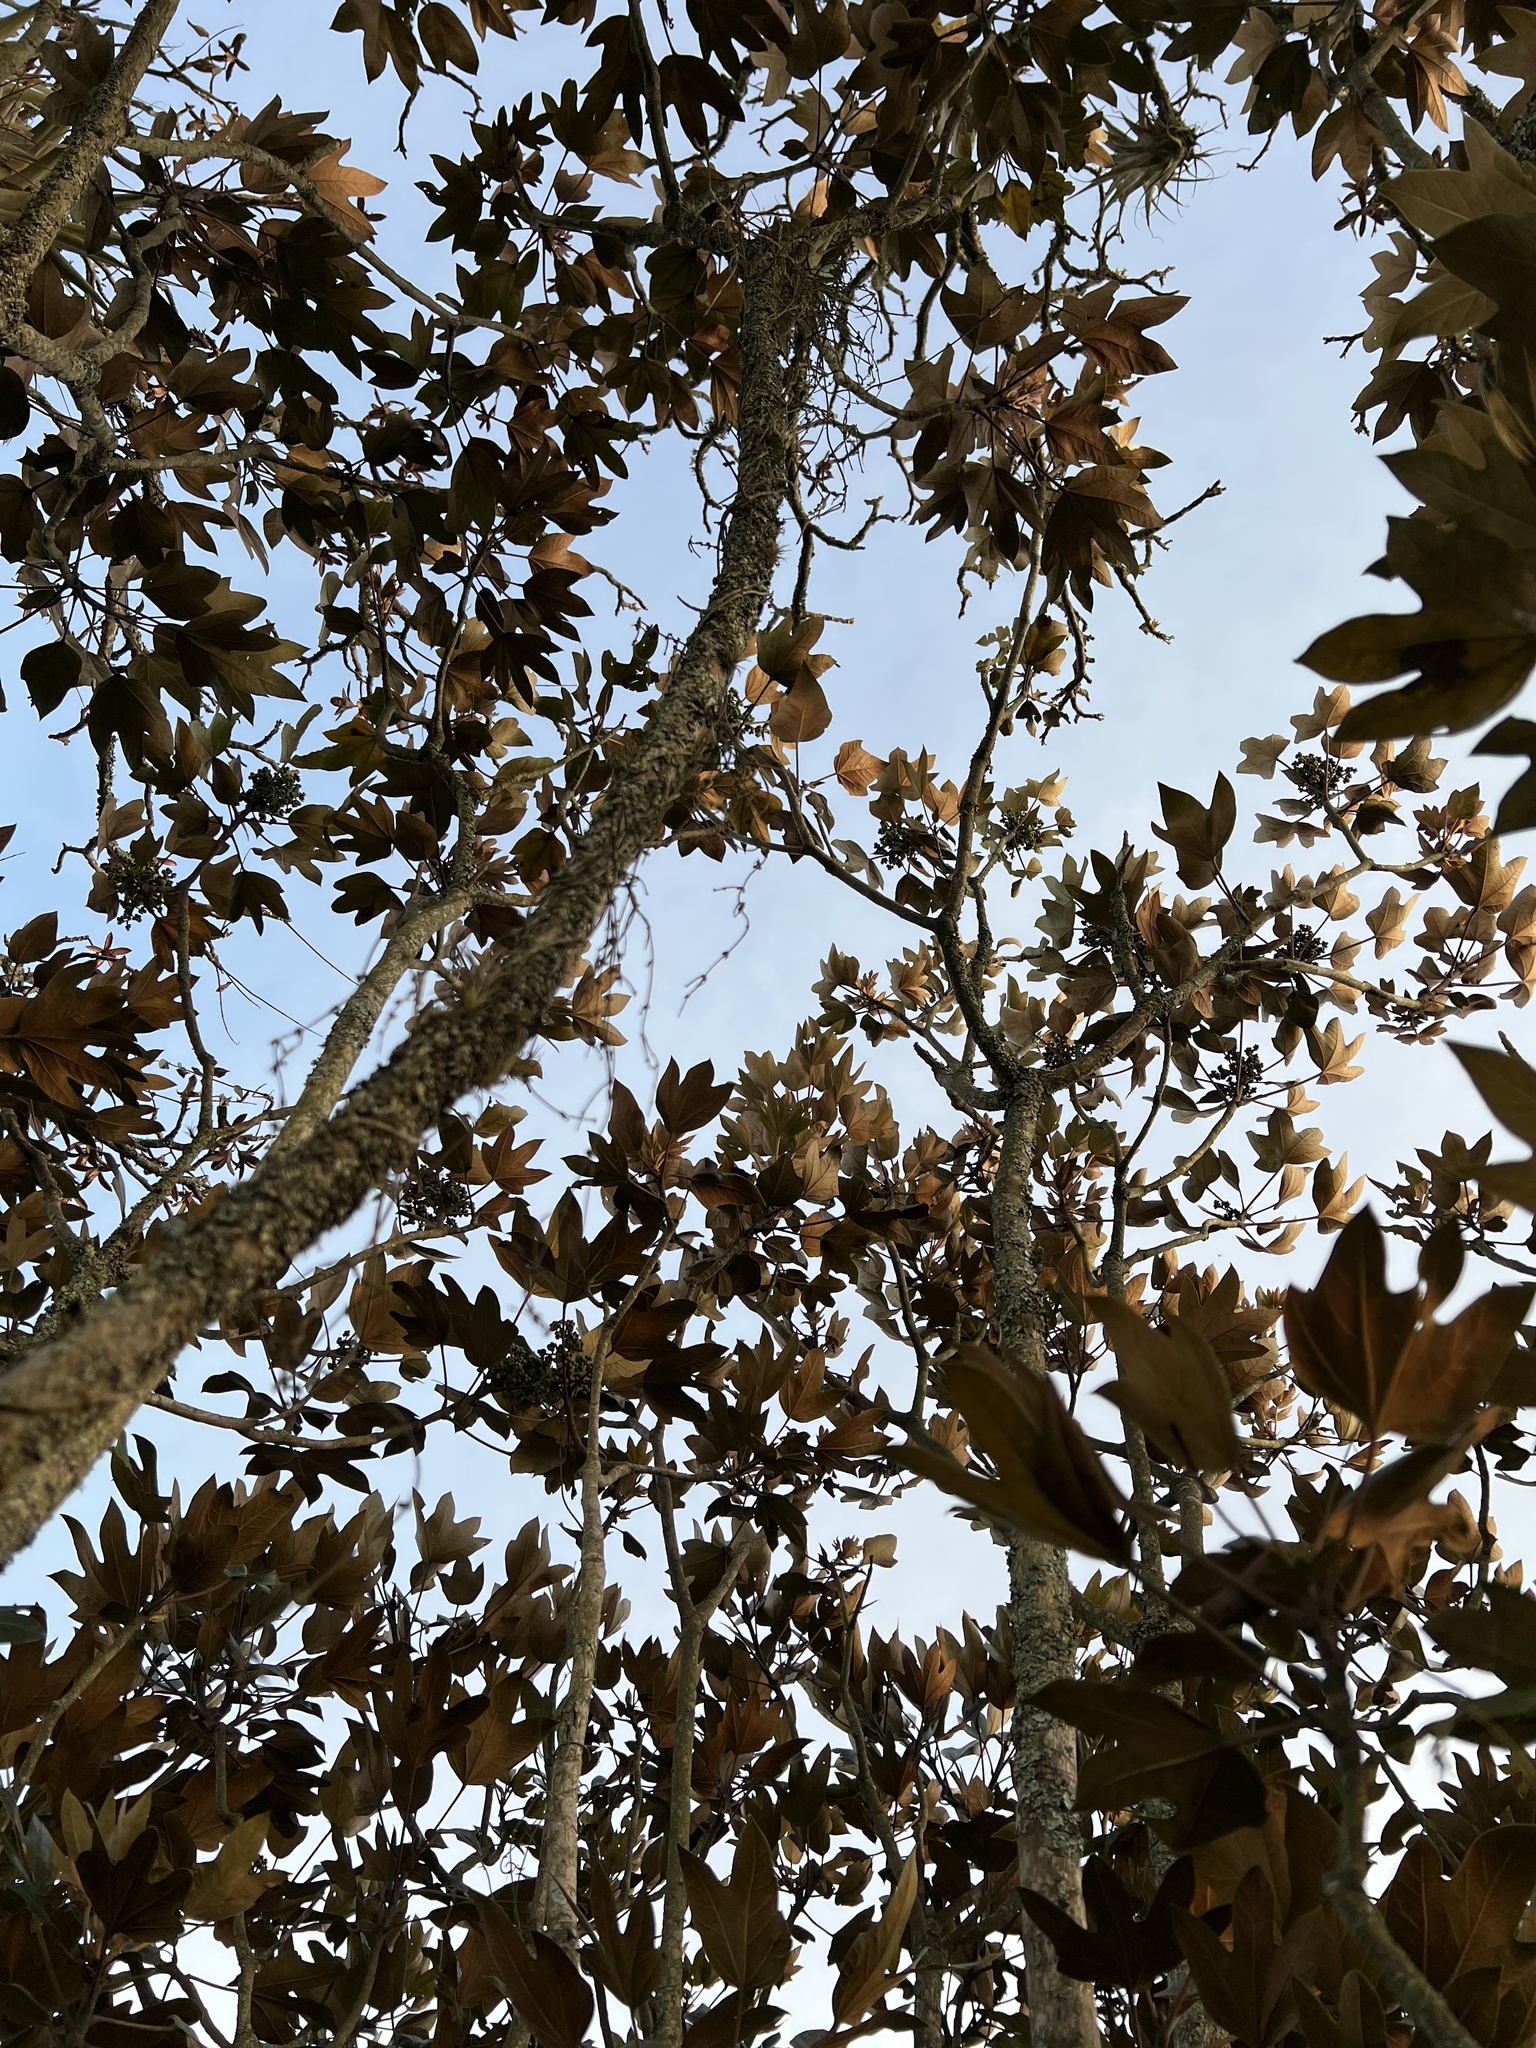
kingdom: Plantae
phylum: Tracheophyta
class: Magnoliopsida
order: Apiales
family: Araliaceae
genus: Oreopanax
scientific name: Oreopanax discolor
